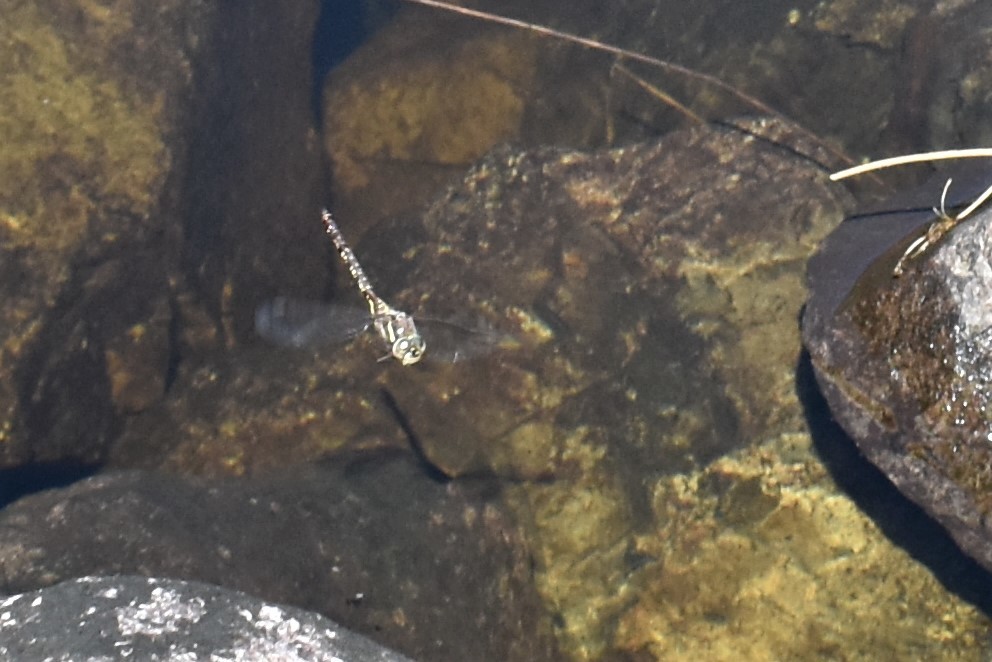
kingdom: Animalia
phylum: Arthropoda
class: Insecta
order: Odonata
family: Aeshnidae
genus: Aeshna
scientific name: Aeshna brevistyla
